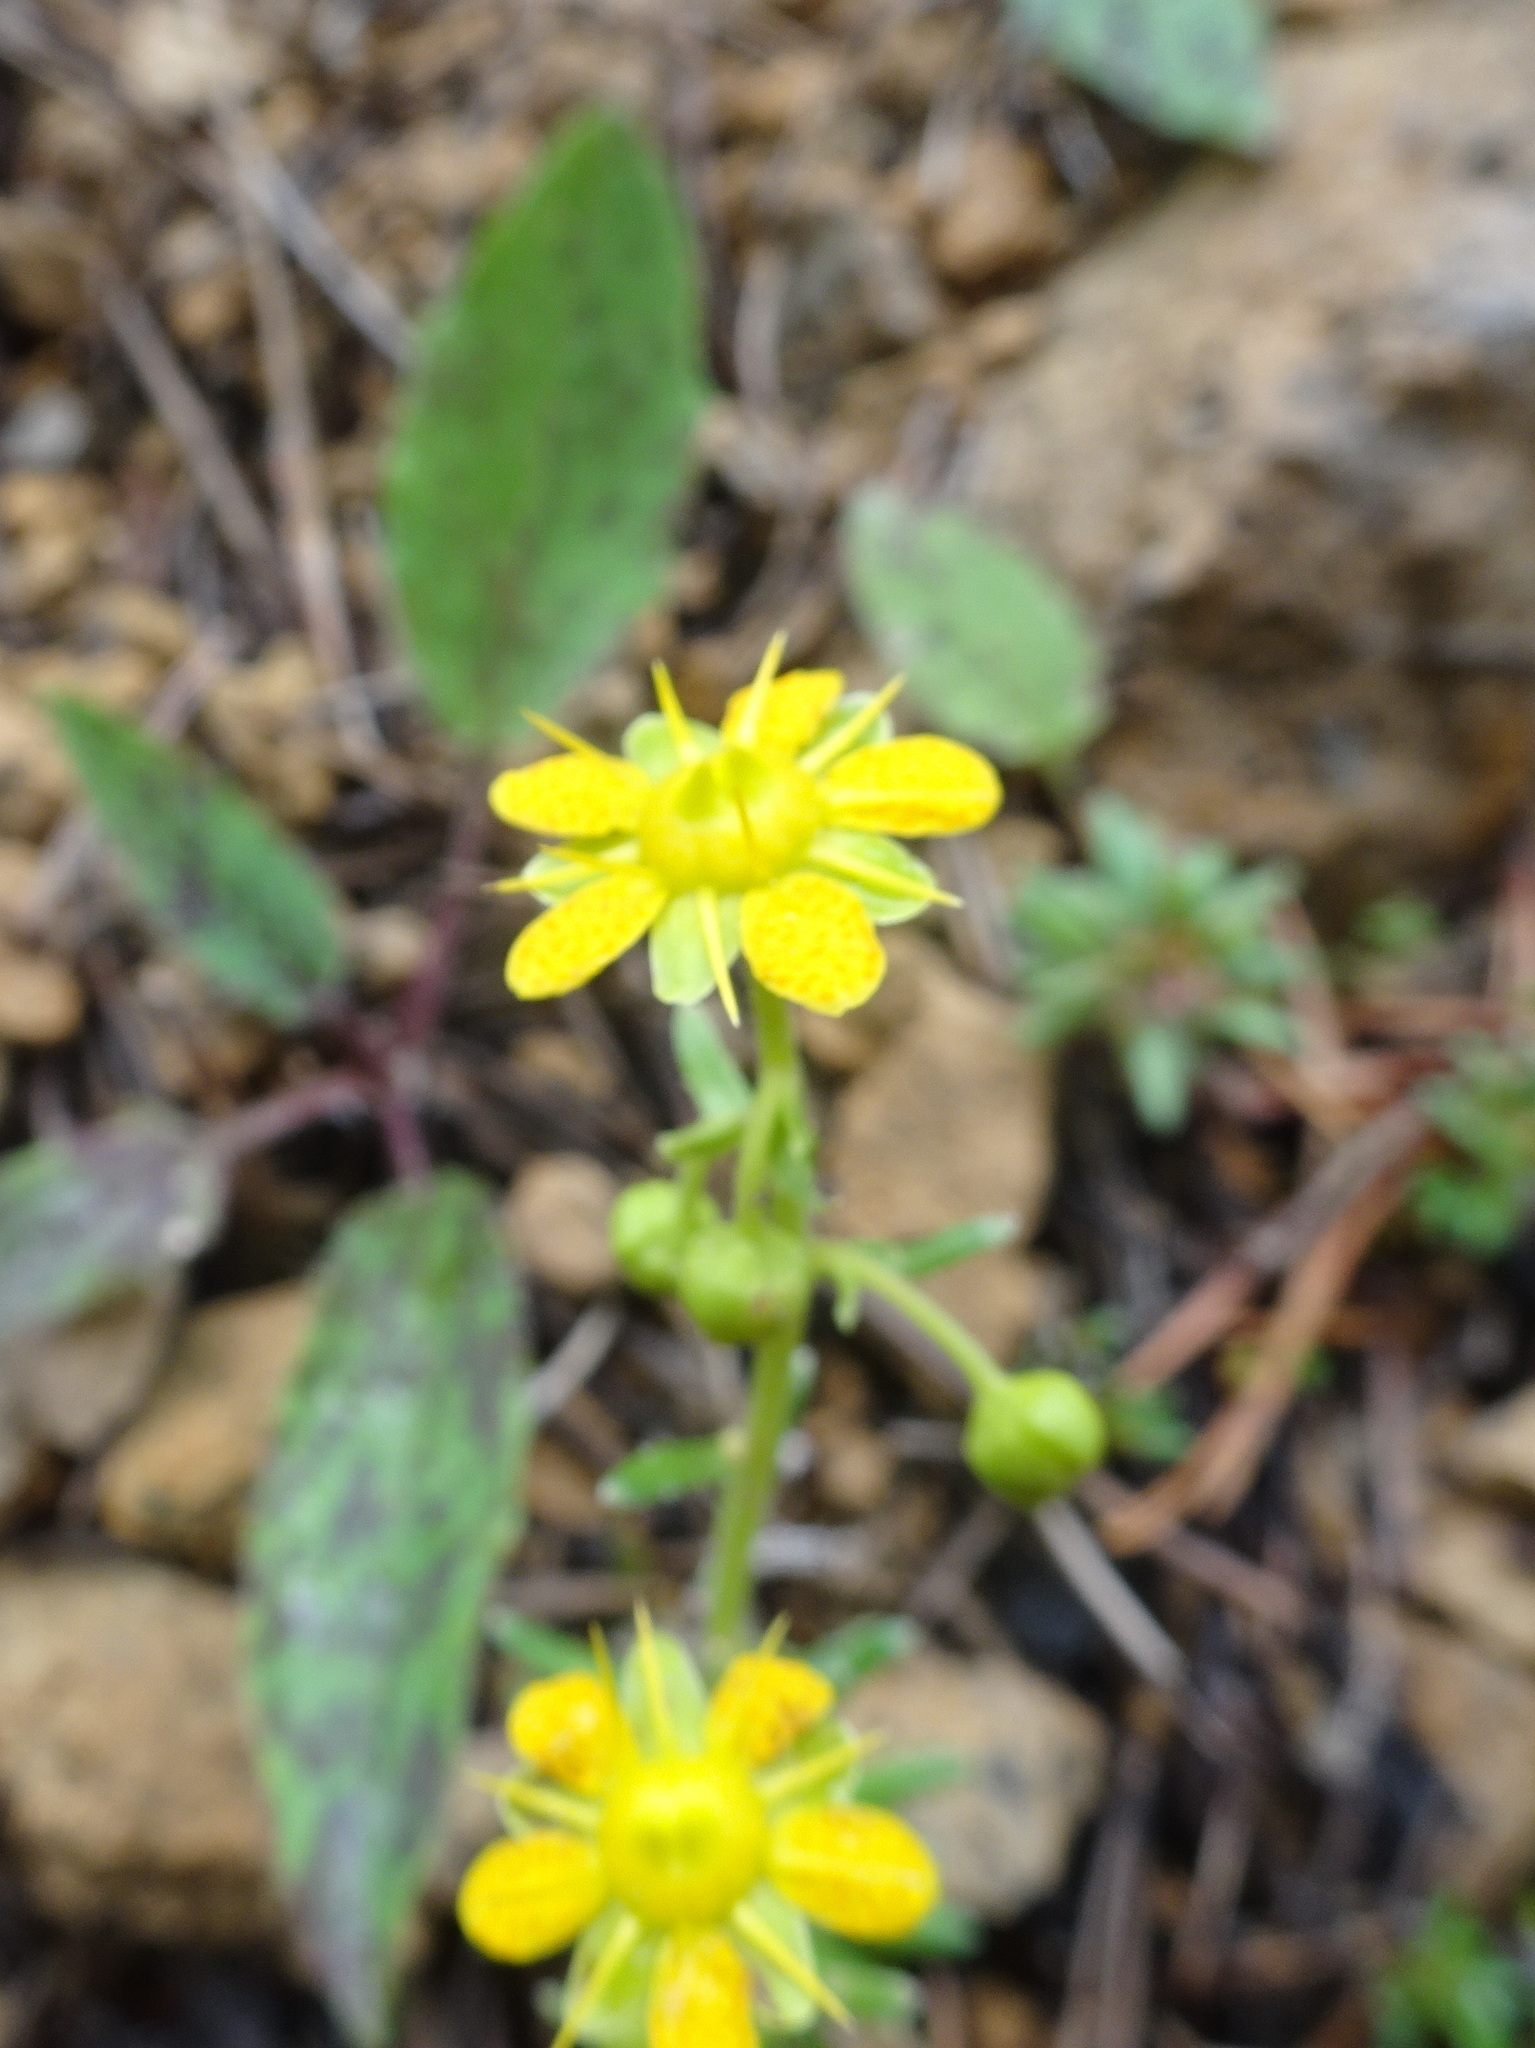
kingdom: Plantae
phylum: Tracheophyta
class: Magnoliopsida
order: Saxifragales
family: Saxifragaceae
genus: Saxifraga
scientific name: Saxifraga aizoides
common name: Yellow mountain saxifrage
